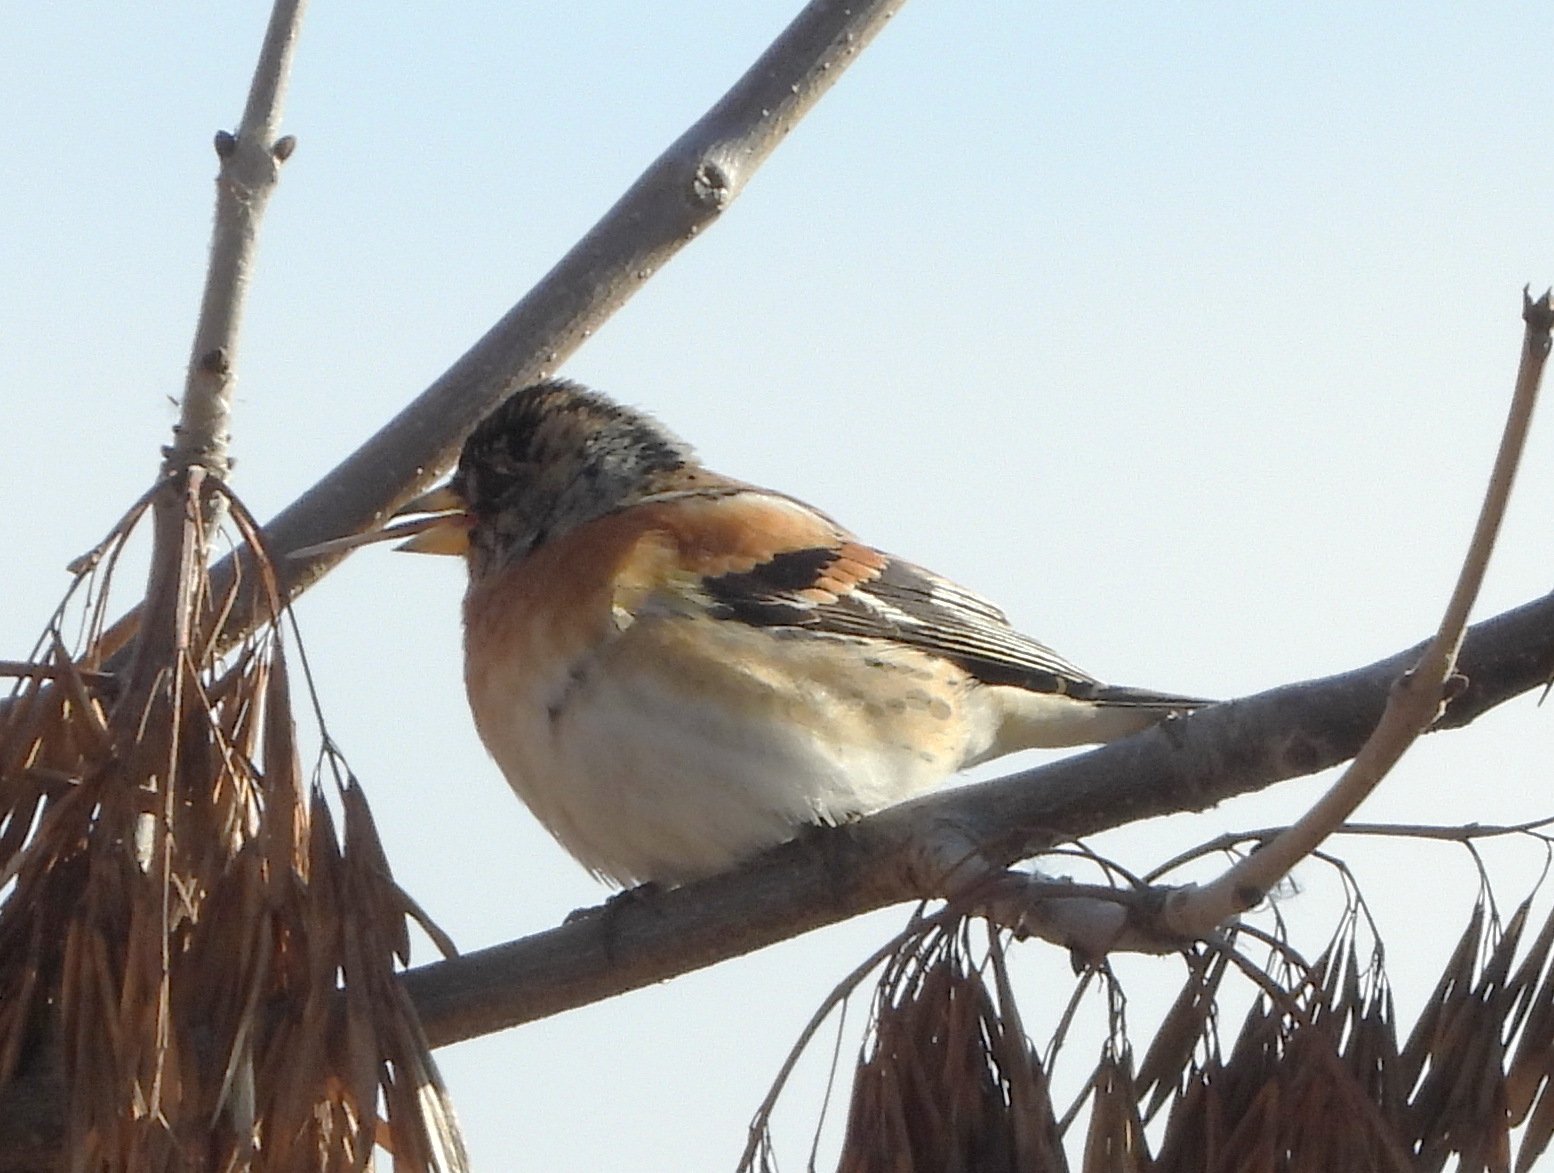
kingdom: Animalia
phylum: Chordata
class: Aves
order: Passeriformes
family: Fringillidae
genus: Fringilla
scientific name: Fringilla montifringilla
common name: Brambling
